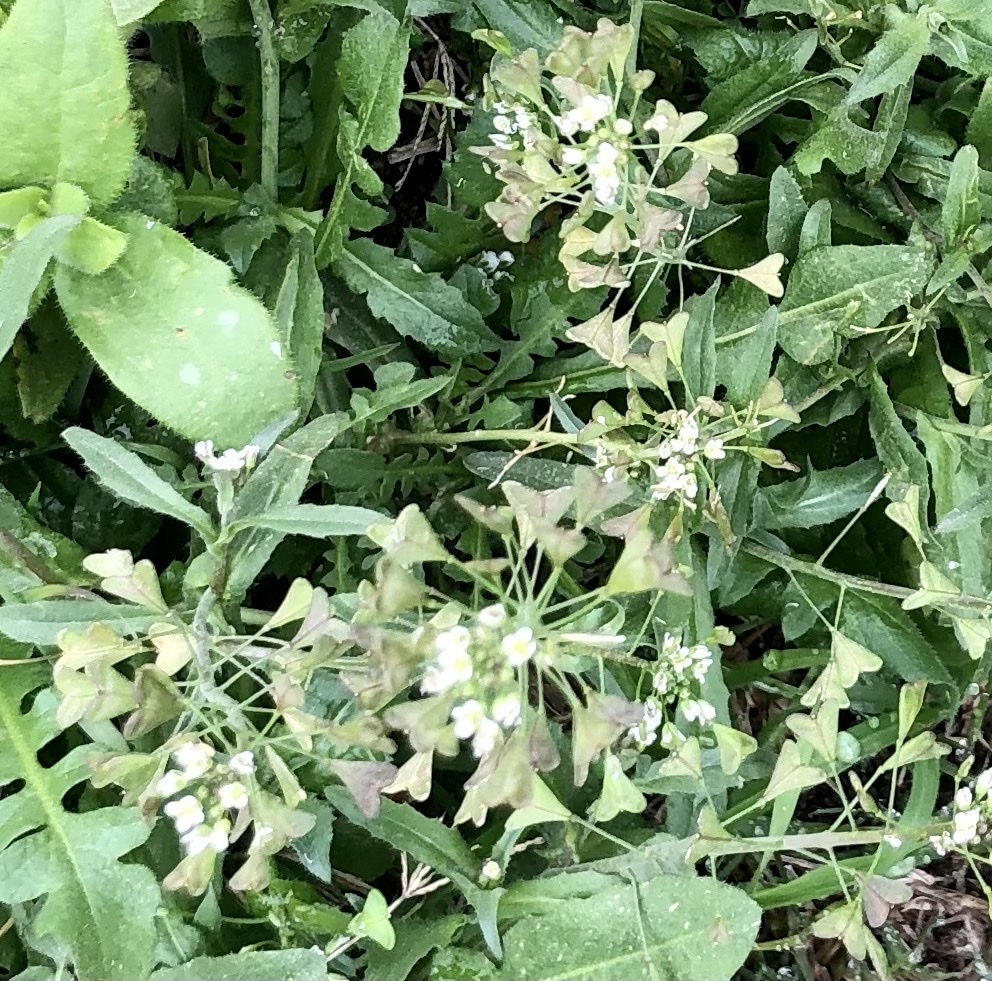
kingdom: Plantae
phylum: Tracheophyta
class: Magnoliopsida
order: Brassicales
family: Brassicaceae
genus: Capsella
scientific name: Capsella bursa-pastoris
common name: Shepherd's purse
